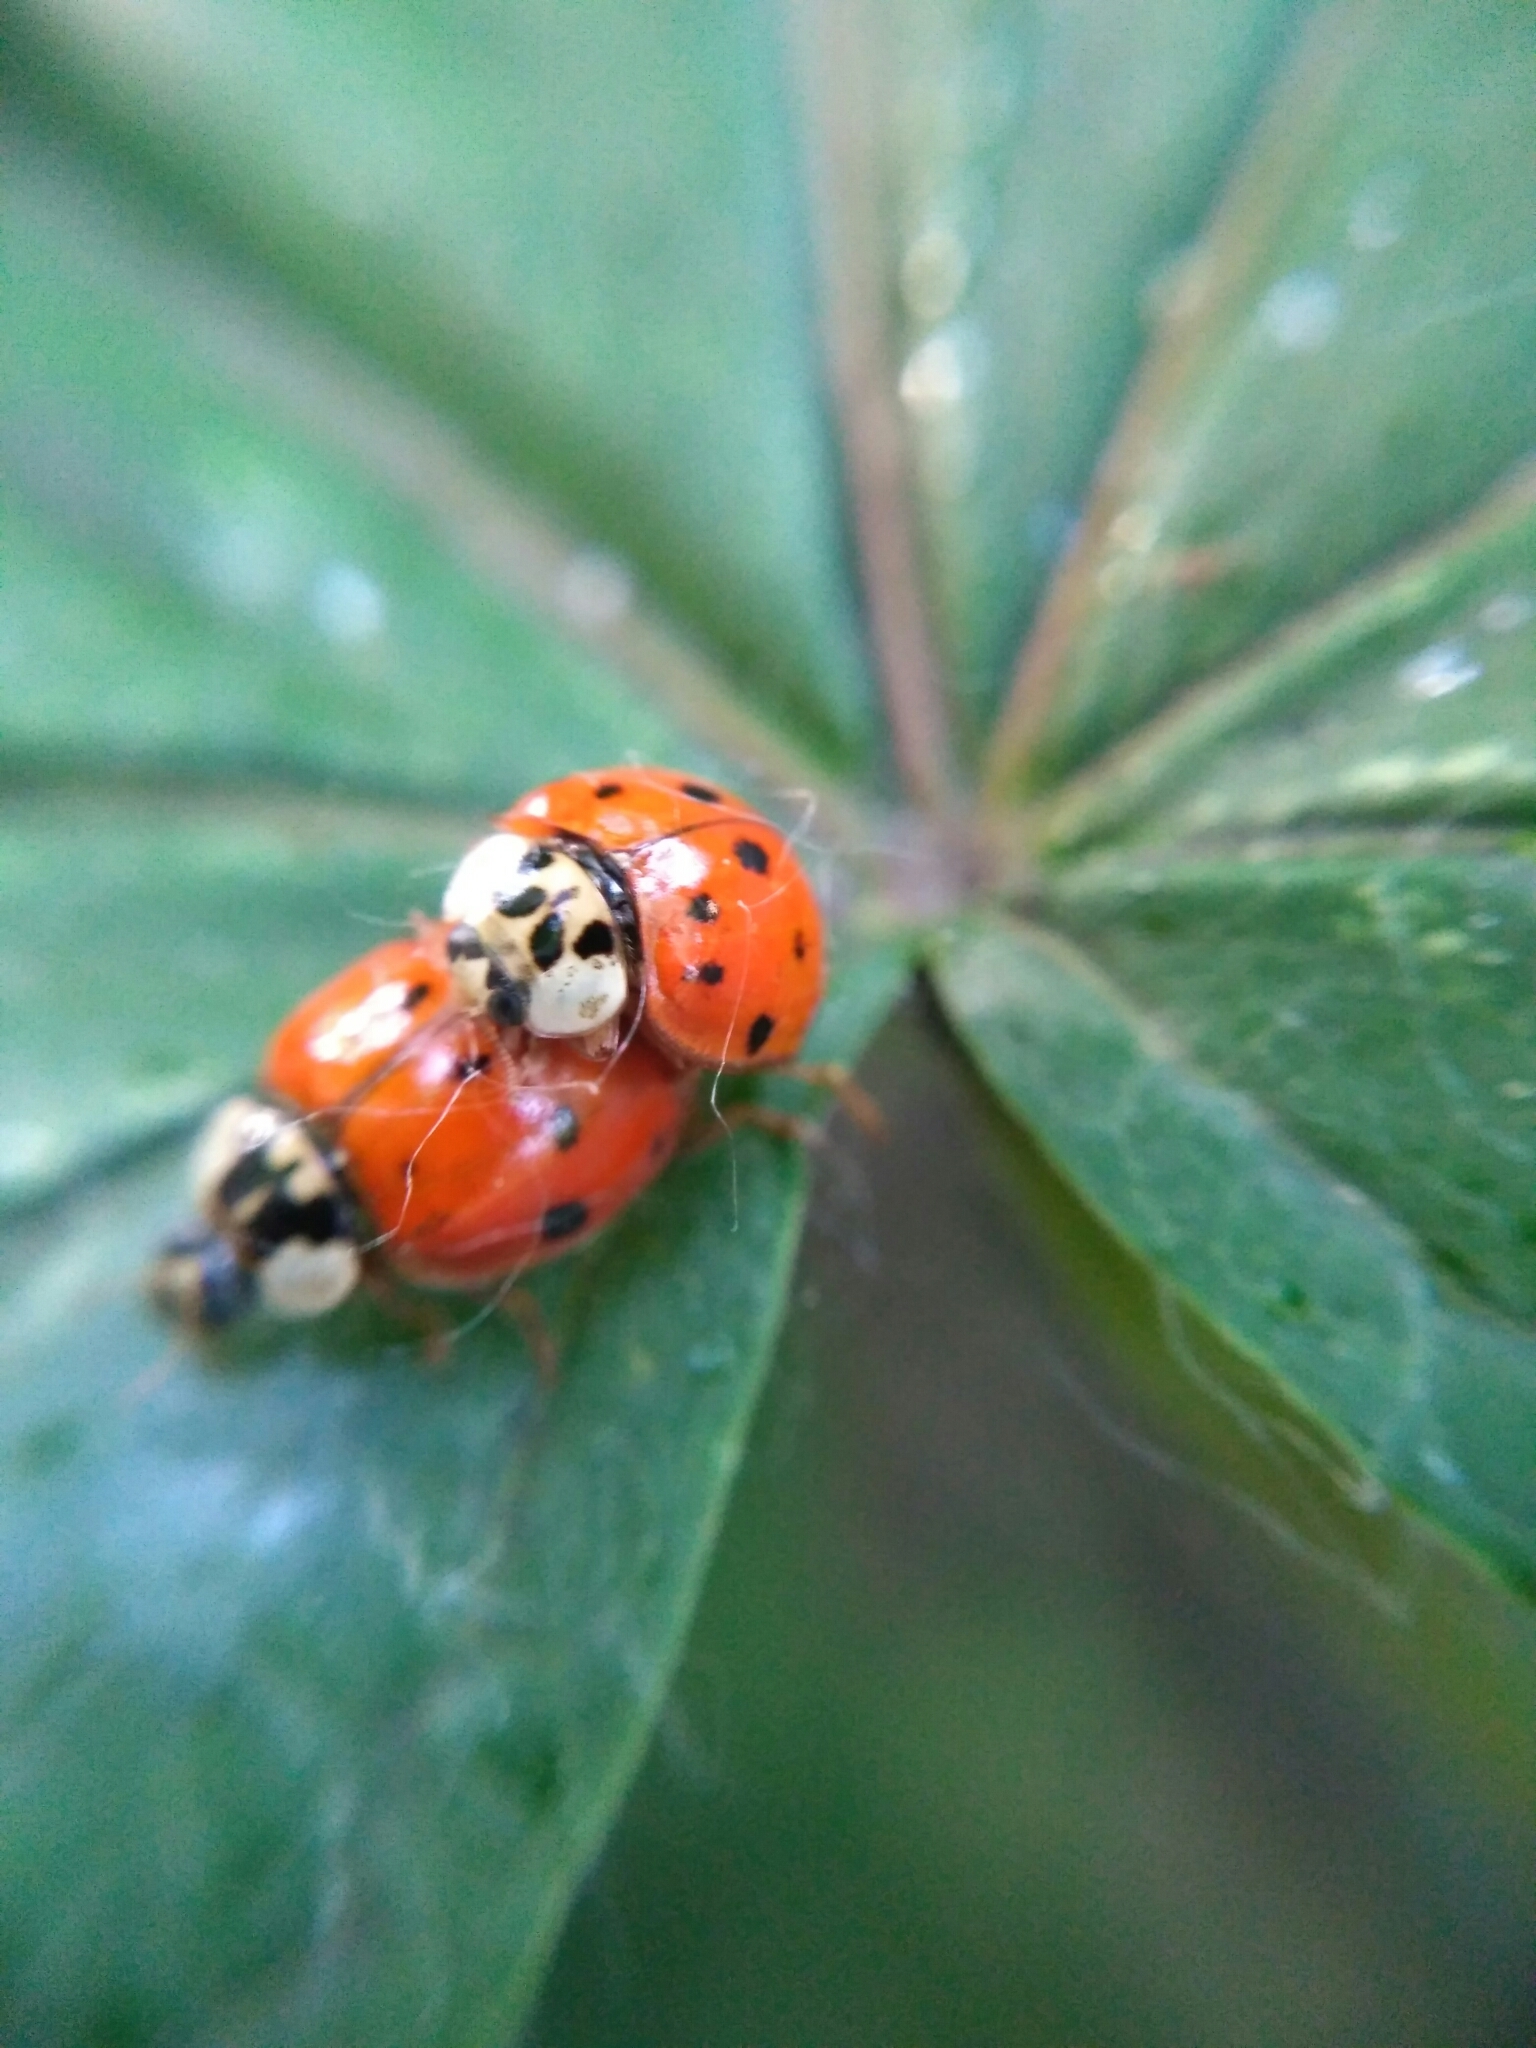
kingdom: Animalia
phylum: Arthropoda
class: Insecta
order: Coleoptera
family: Coccinellidae
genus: Harmonia
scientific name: Harmonia axyridis
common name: Harlequin ladybird
